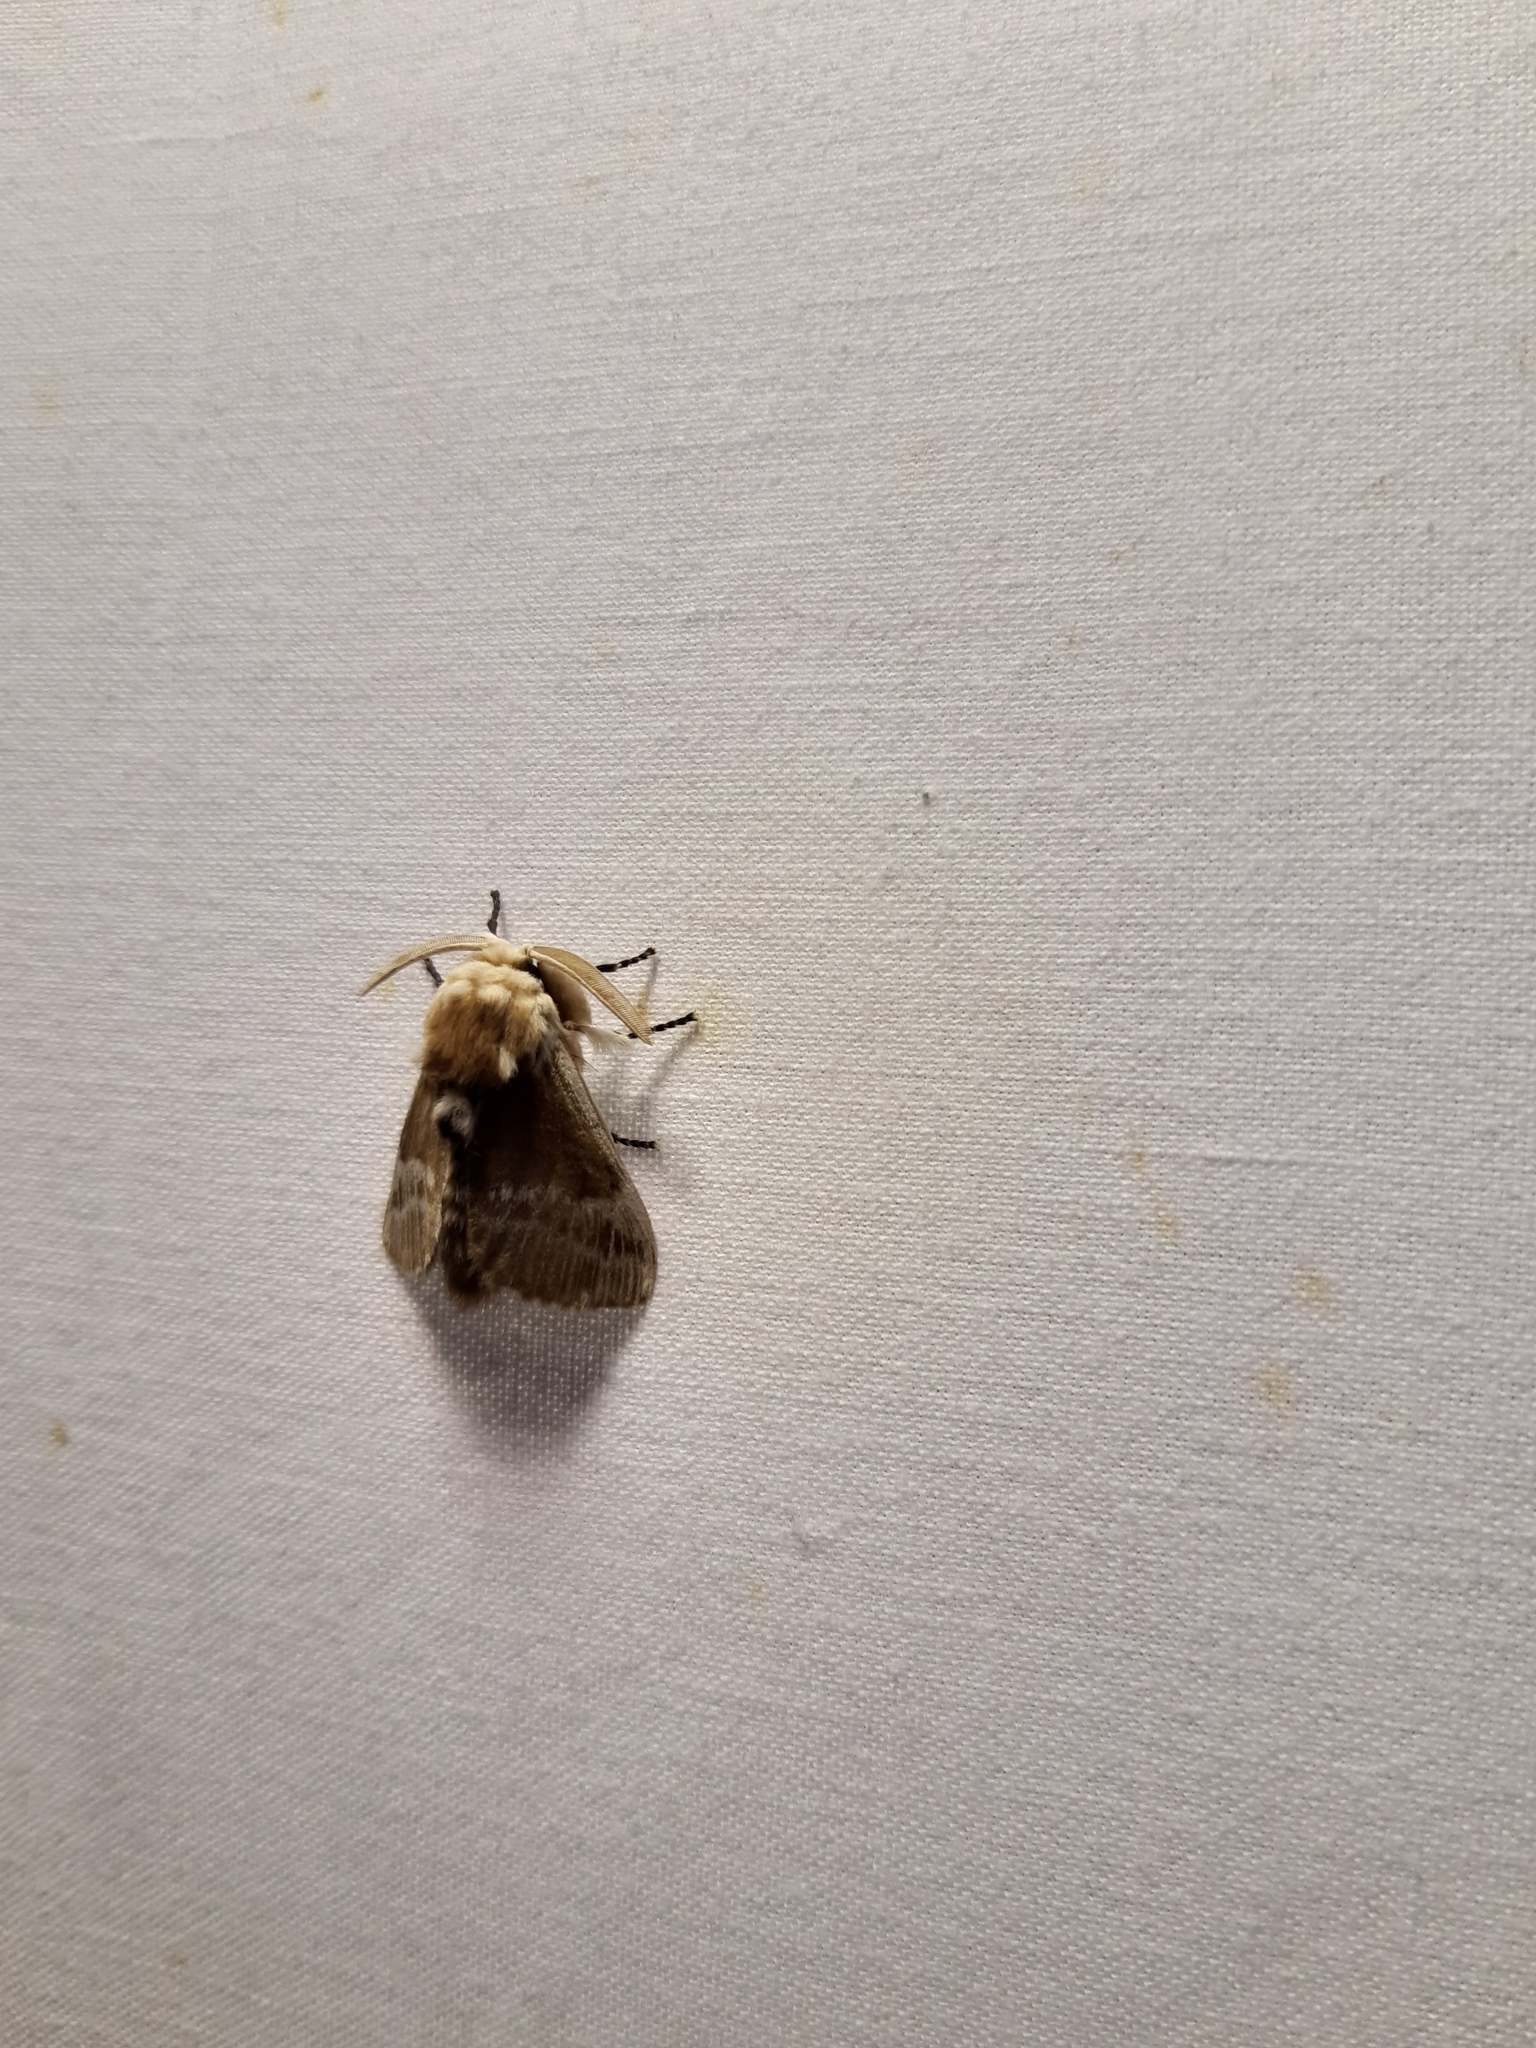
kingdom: Animalia
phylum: Arthropoda
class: Insecta
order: Lepidoptera
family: Megalopygidae
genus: Podalia
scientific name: Podalia walkeri
